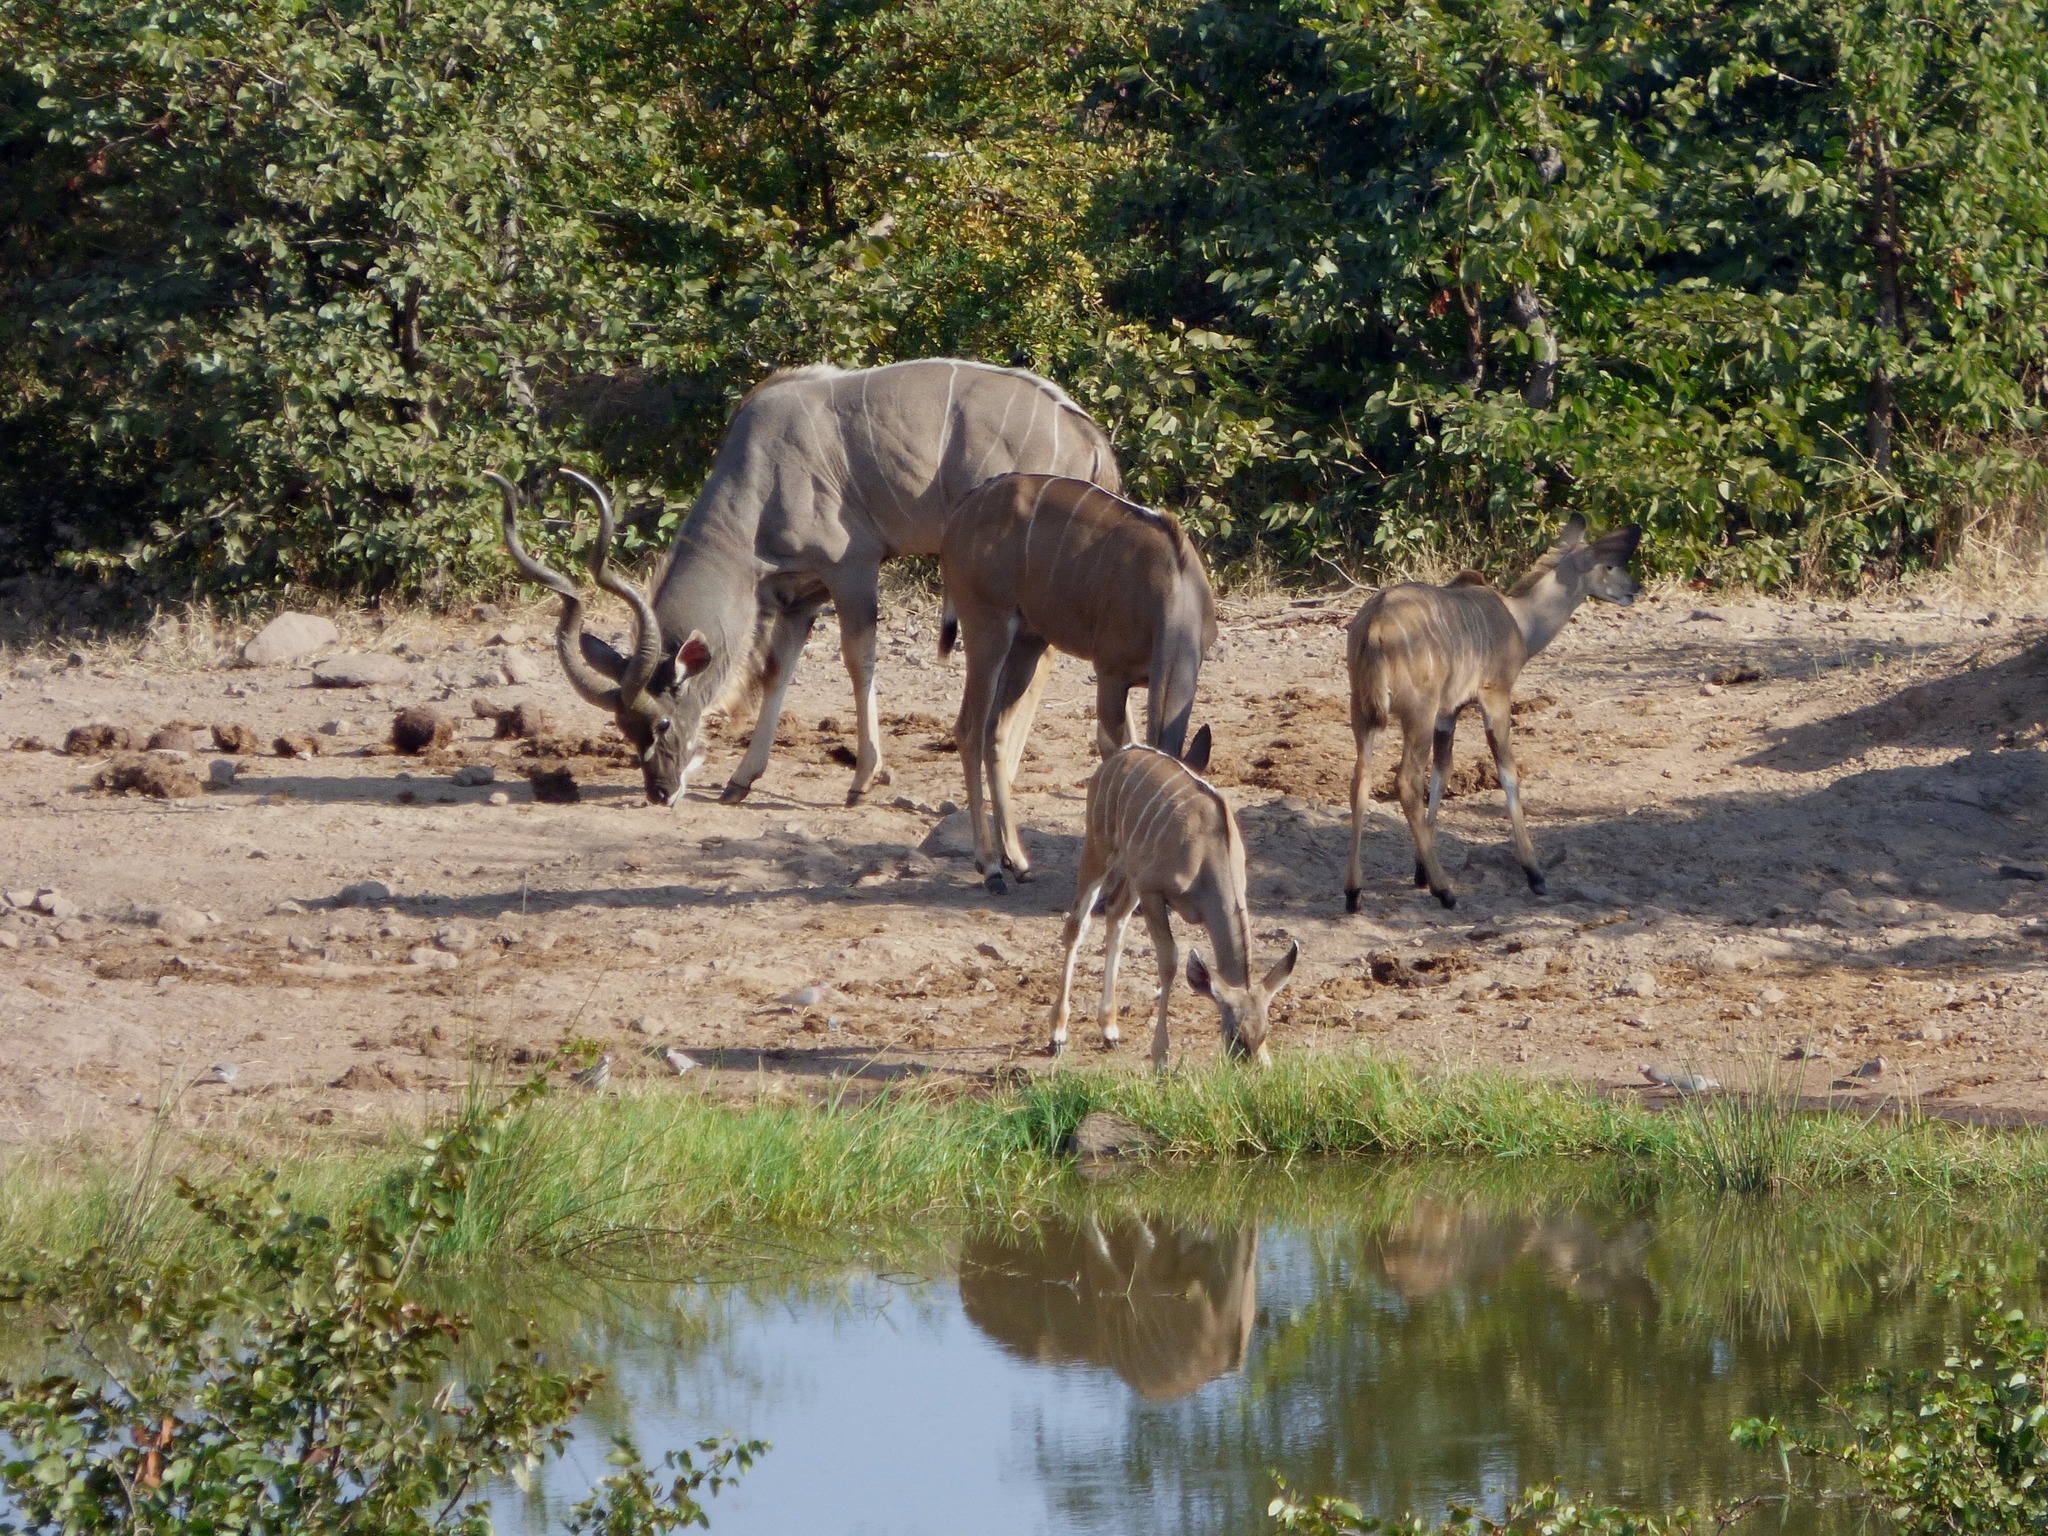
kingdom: Animalia
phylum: Chordata
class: Mammalia
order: Artiodactyla
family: Bovidae
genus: Tragelaphus
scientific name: Tragelaphus strepsiceros
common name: Greater kudu
